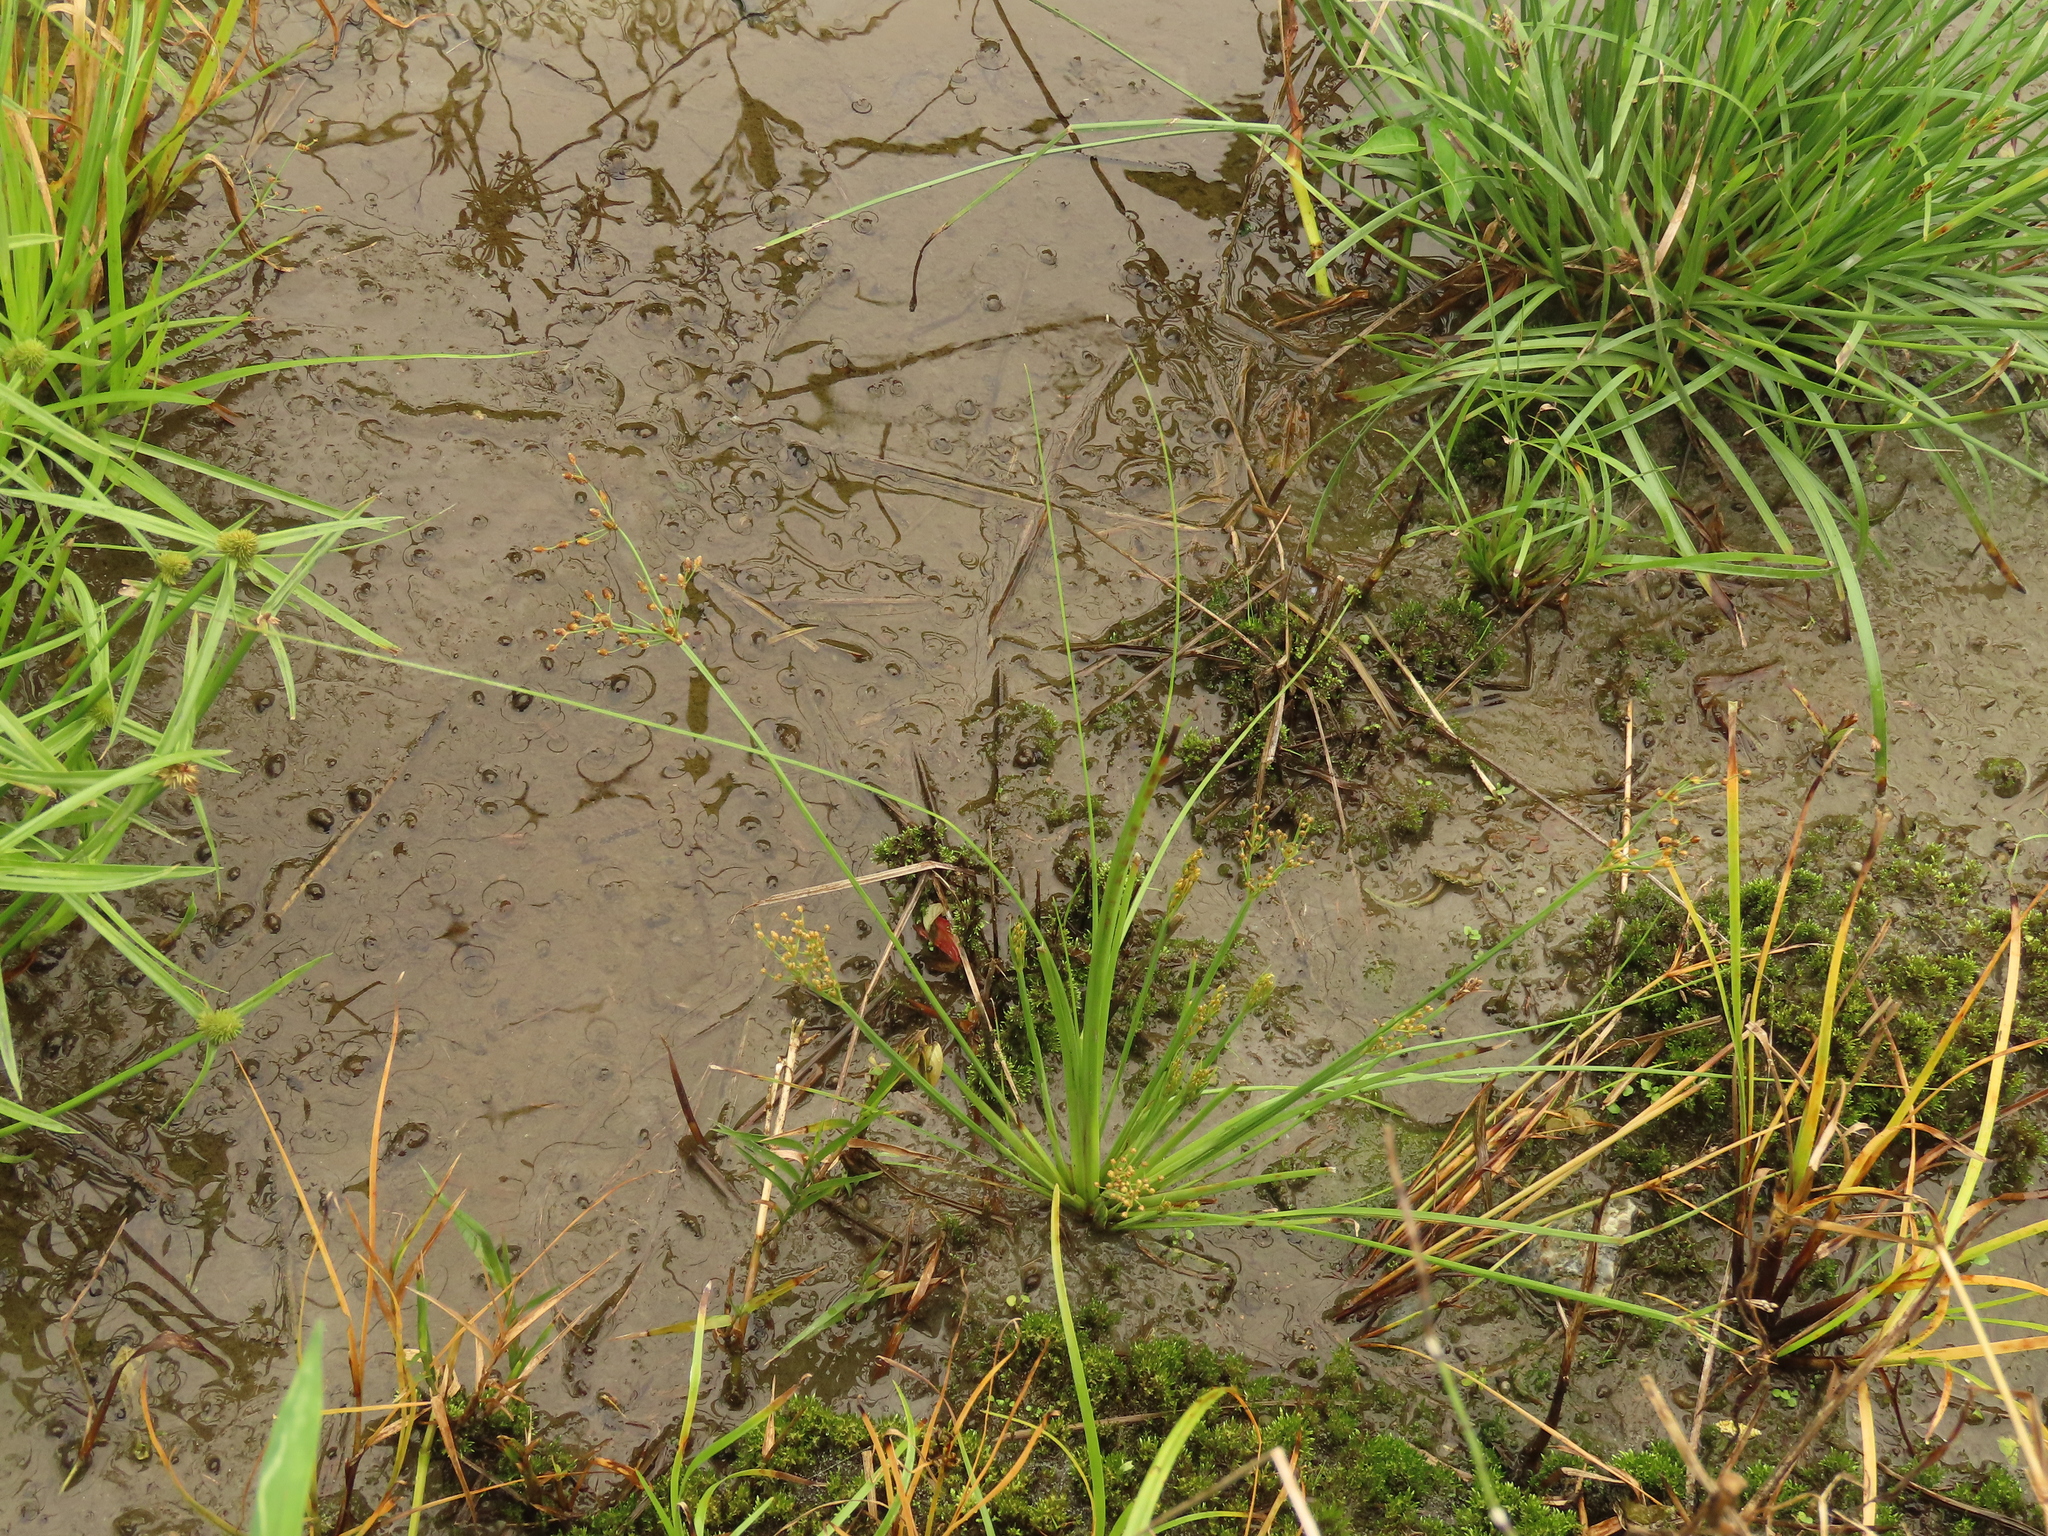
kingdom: Plantae
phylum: Tracheophyta
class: Liliopsida
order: Poales
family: Cyperaceae
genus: Fimbristylis
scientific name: Fimbristylis littoralis
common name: Fimbry
